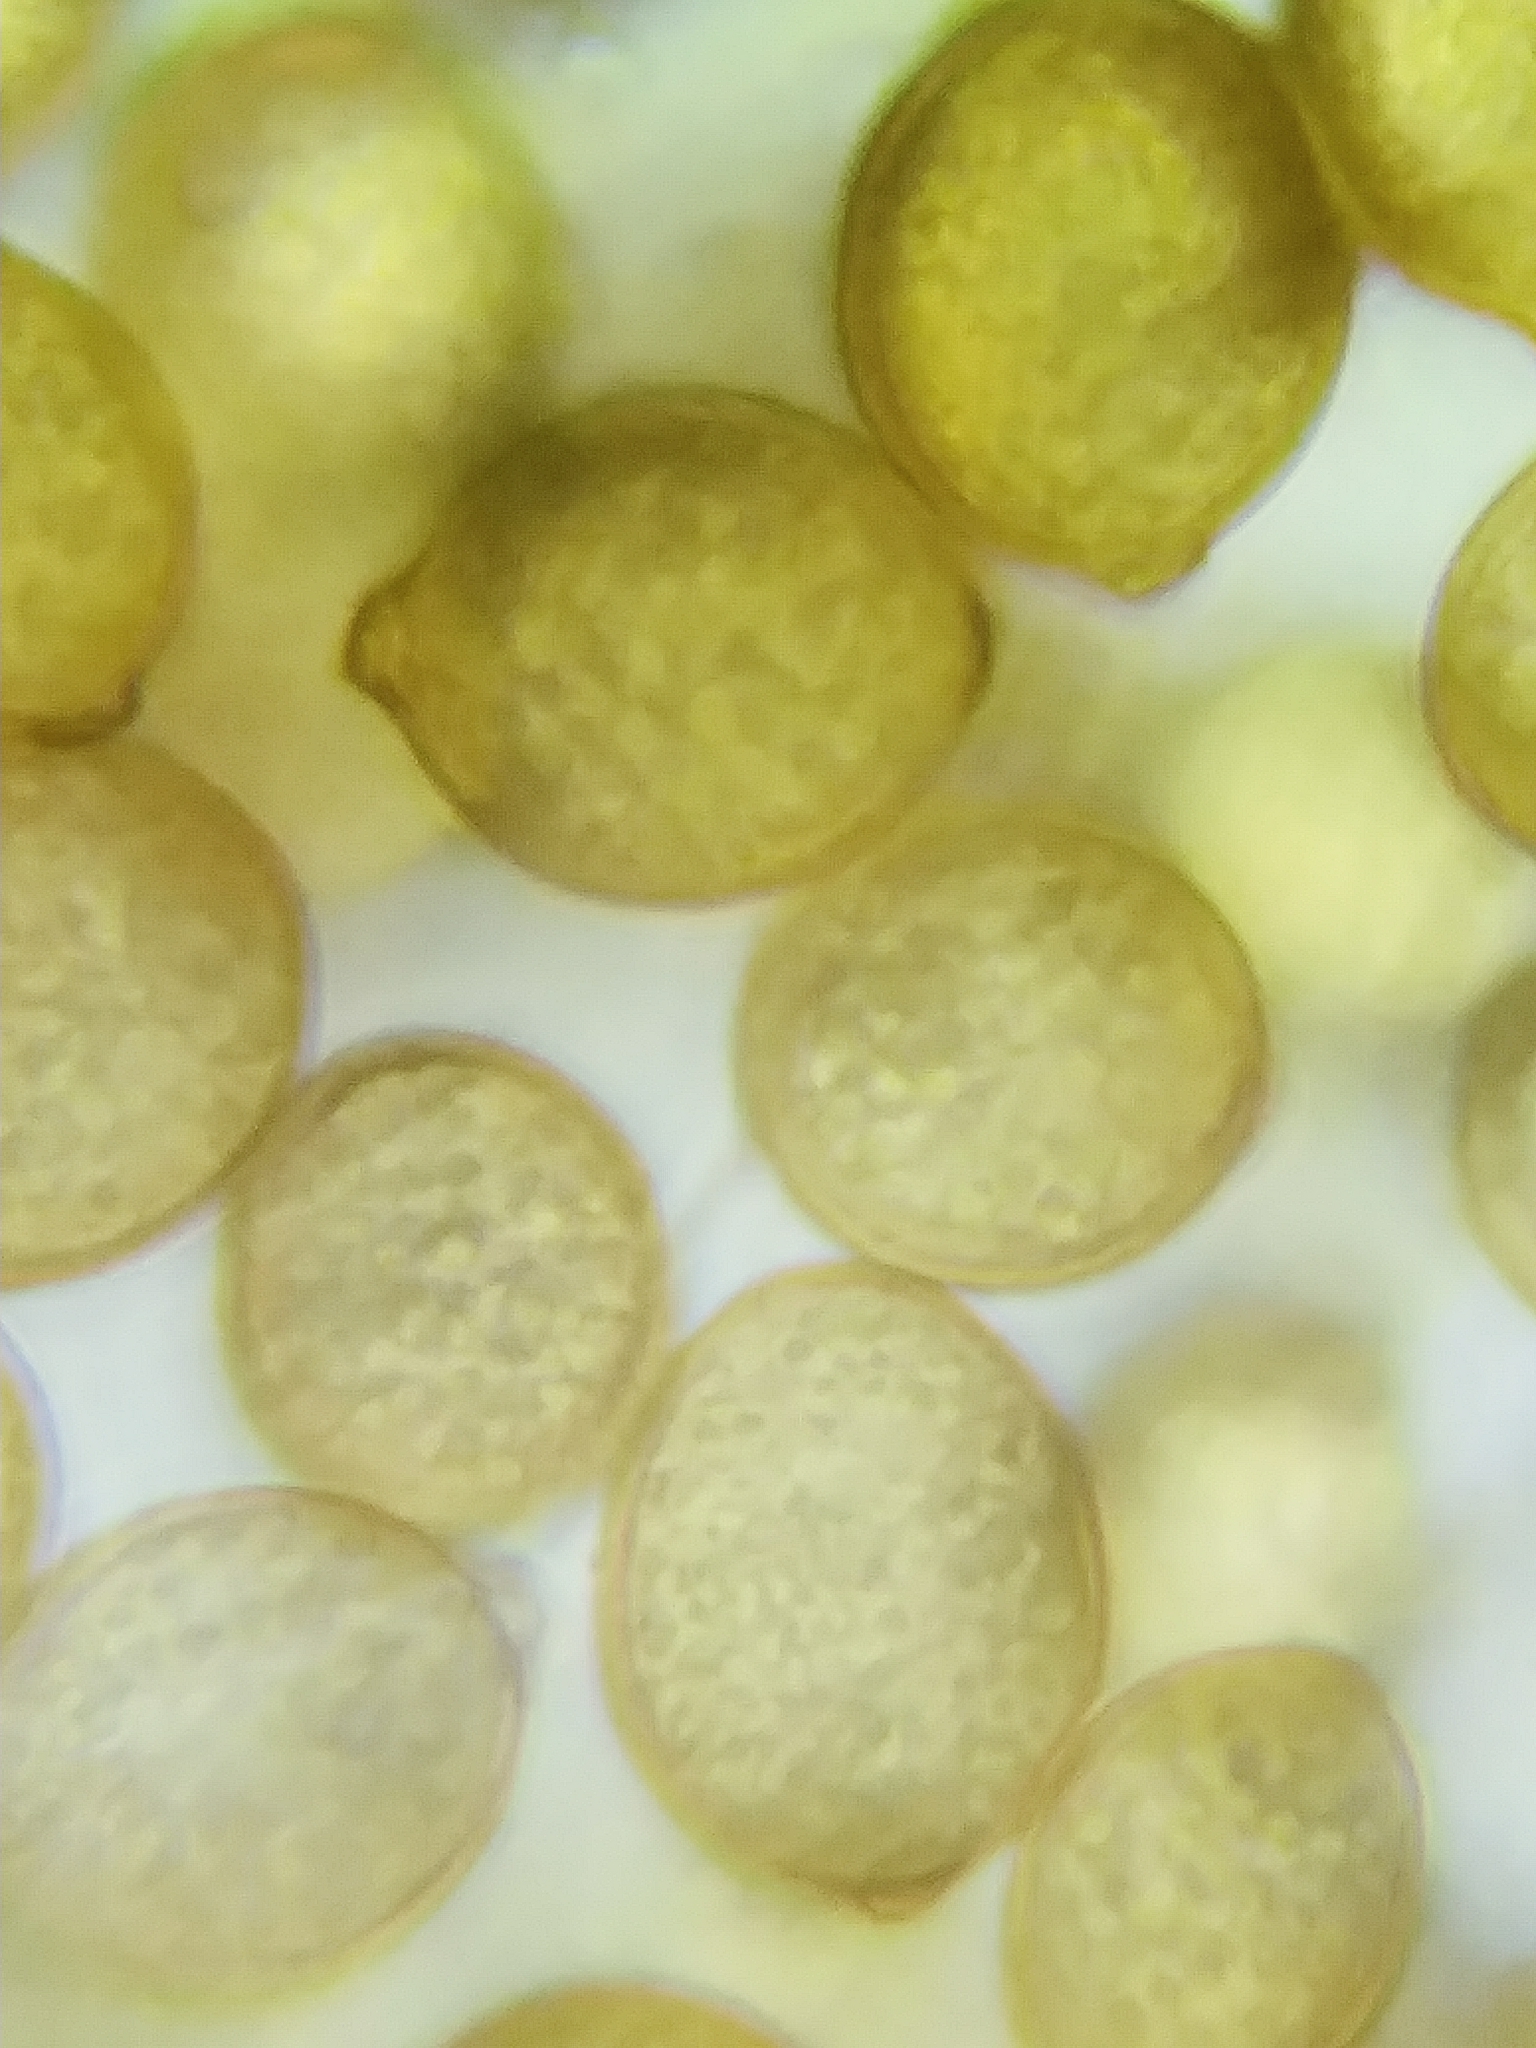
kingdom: Fungi
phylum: Basidiomycota
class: Agaricomycetes
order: Cantharellales
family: Botryobasidiaceae
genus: Botryobasidium
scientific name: Botryobasidium simile
